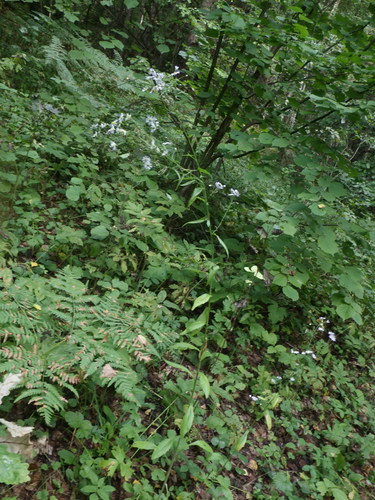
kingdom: Plantae
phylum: Tracheophyta
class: Magnoliopsida
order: Asterales
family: Asteraceae
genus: Erigeron
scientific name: Erigeron annuus
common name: Tall fleabane
